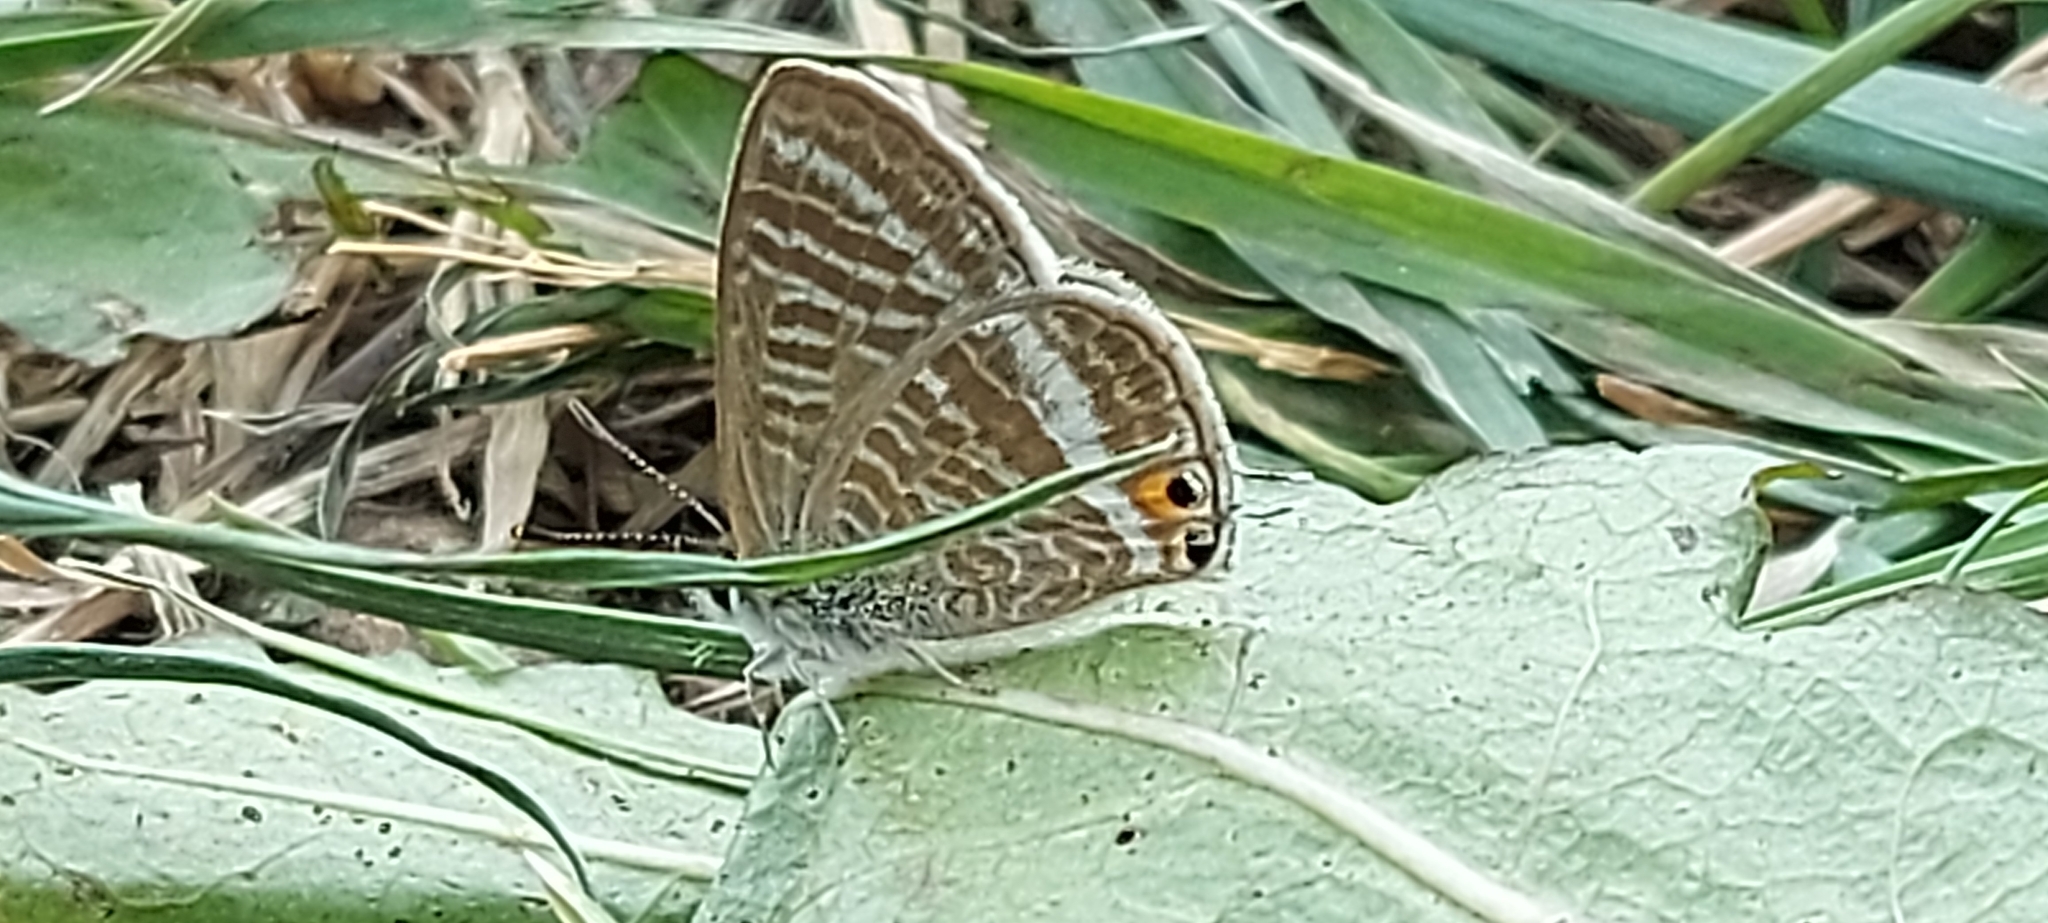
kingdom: Animalia
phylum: Arthropoda
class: Insecta
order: Lepidoptera
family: Lycaenidae
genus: Lampides
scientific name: Lampides boeticus
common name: Long-tailed blue
